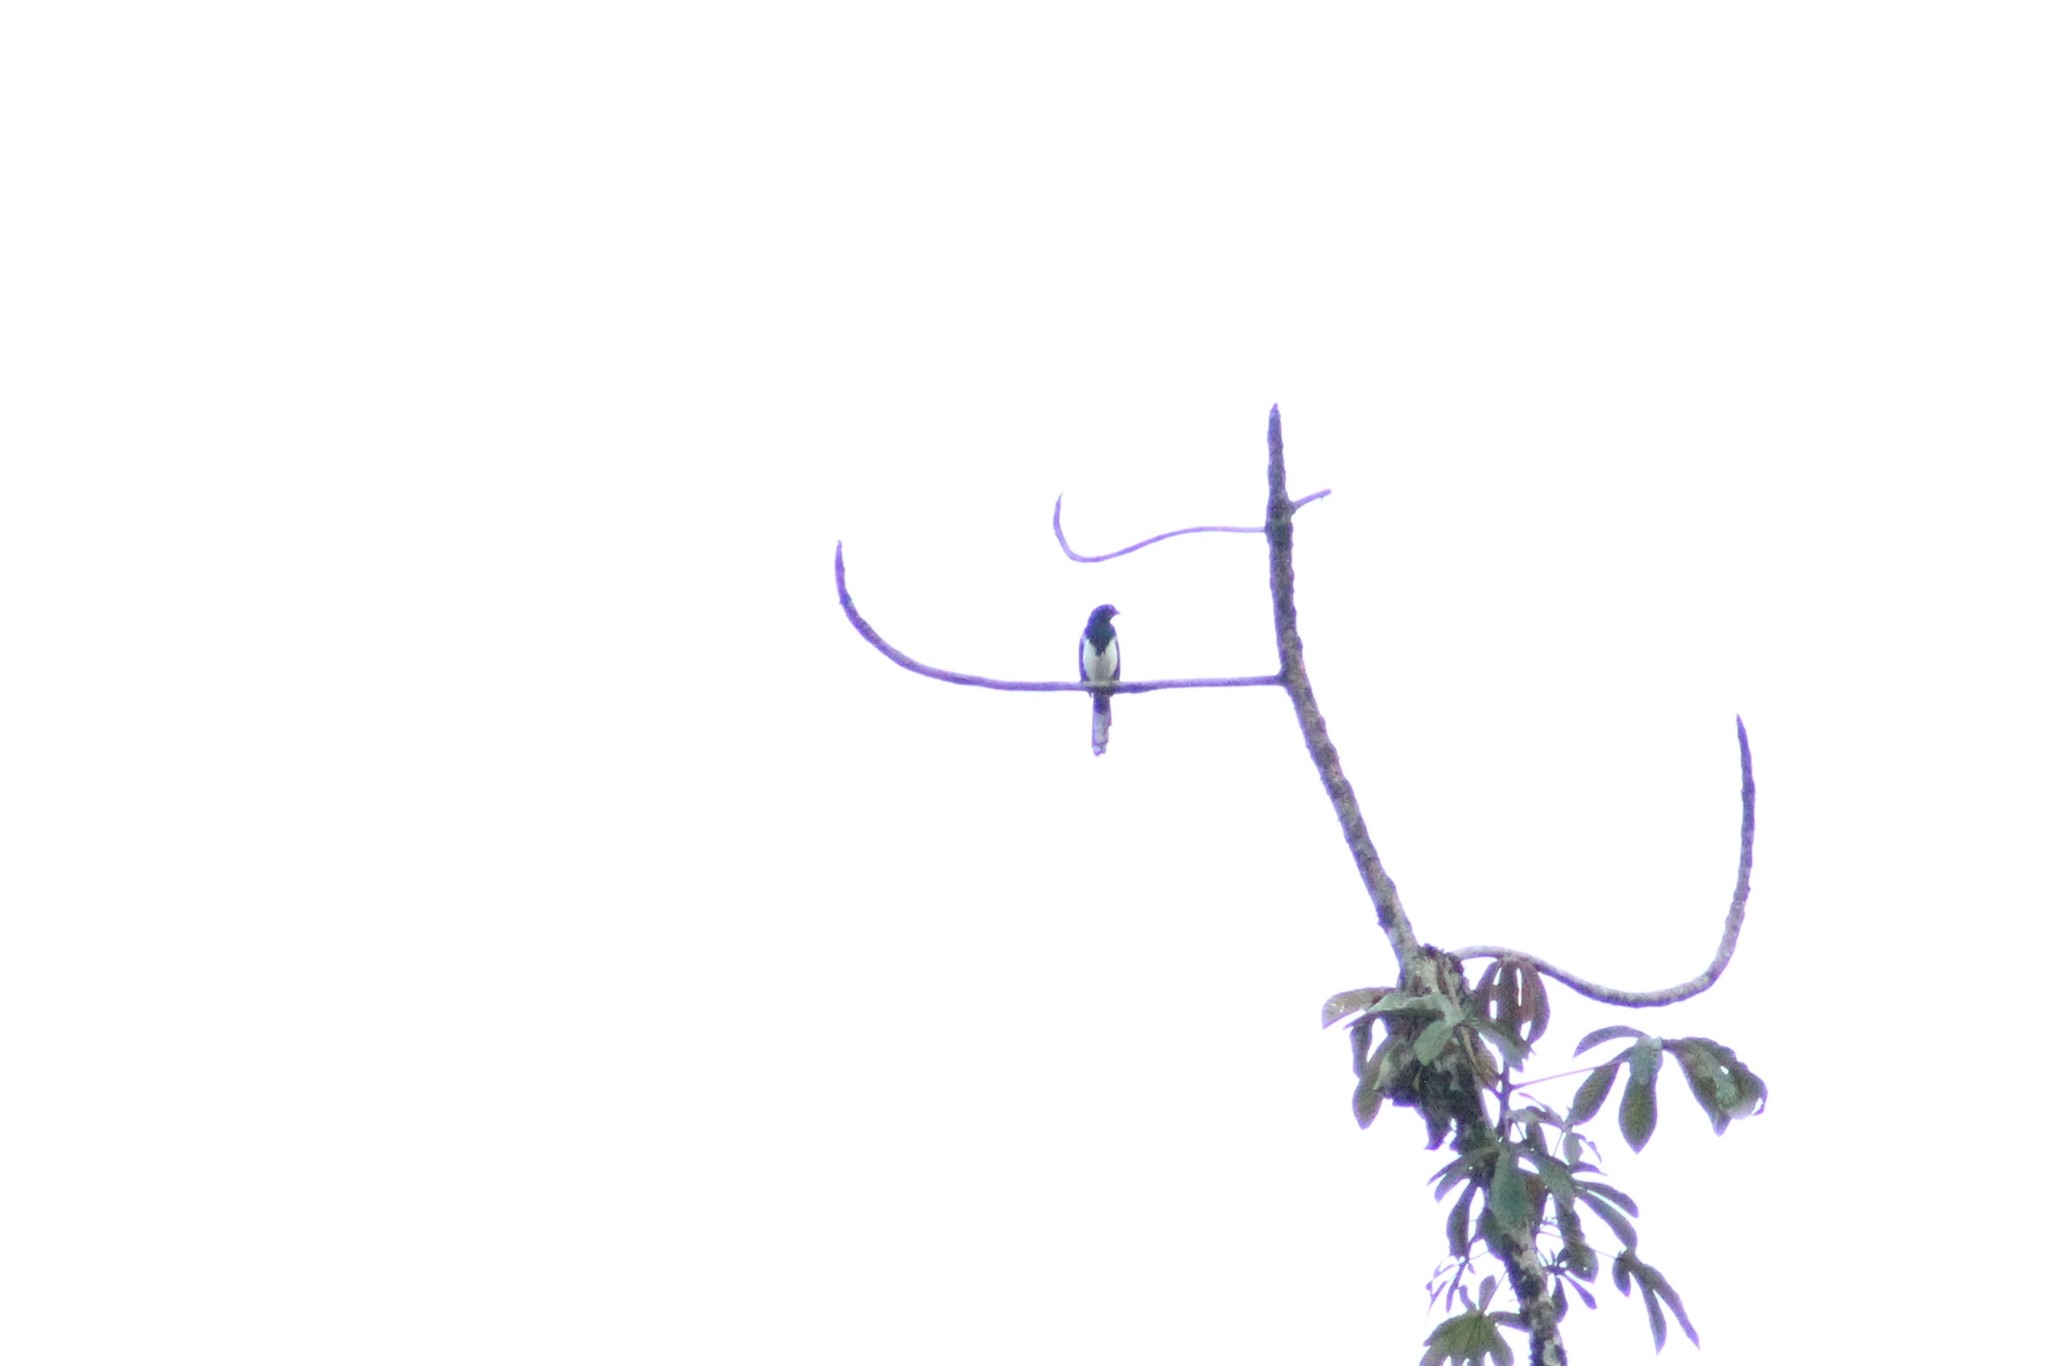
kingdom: Animalia
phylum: Chordata
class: Aves
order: Passeriformes
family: Thraupidae
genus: Cissopis
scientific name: Cissopis leverianus
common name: Magpie tanager
